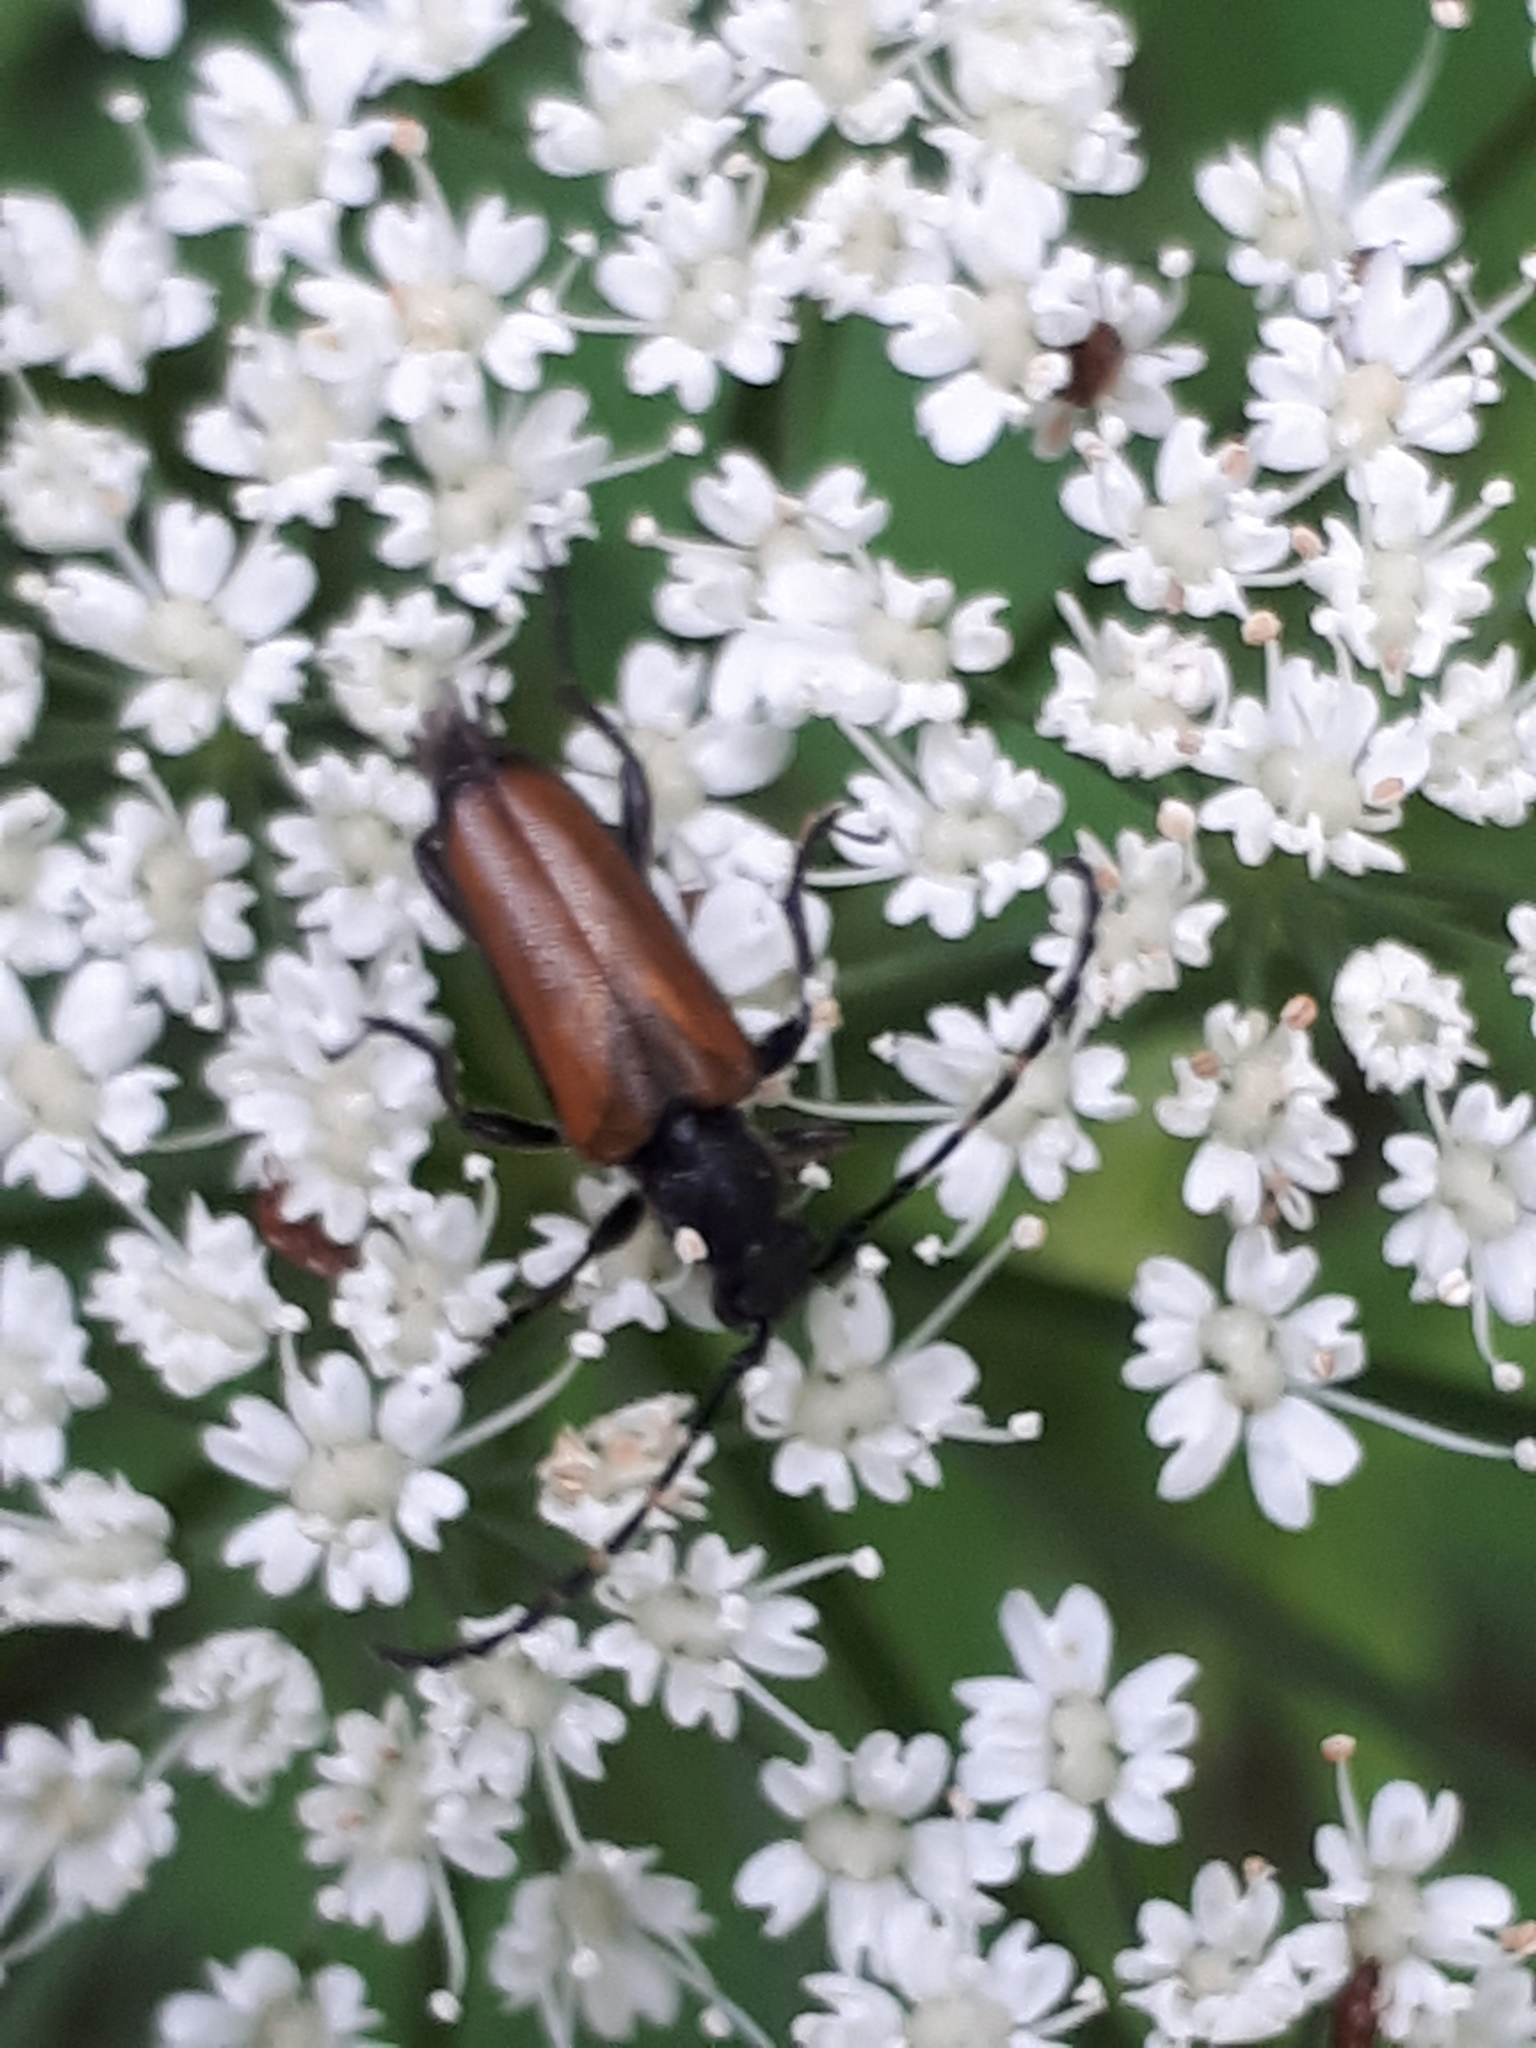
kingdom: Animalia
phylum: Arthropoda
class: Insecta
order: Coleoptera
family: Cerambycidae
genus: Paracorymbia
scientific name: Paracorymbia maculicornis
